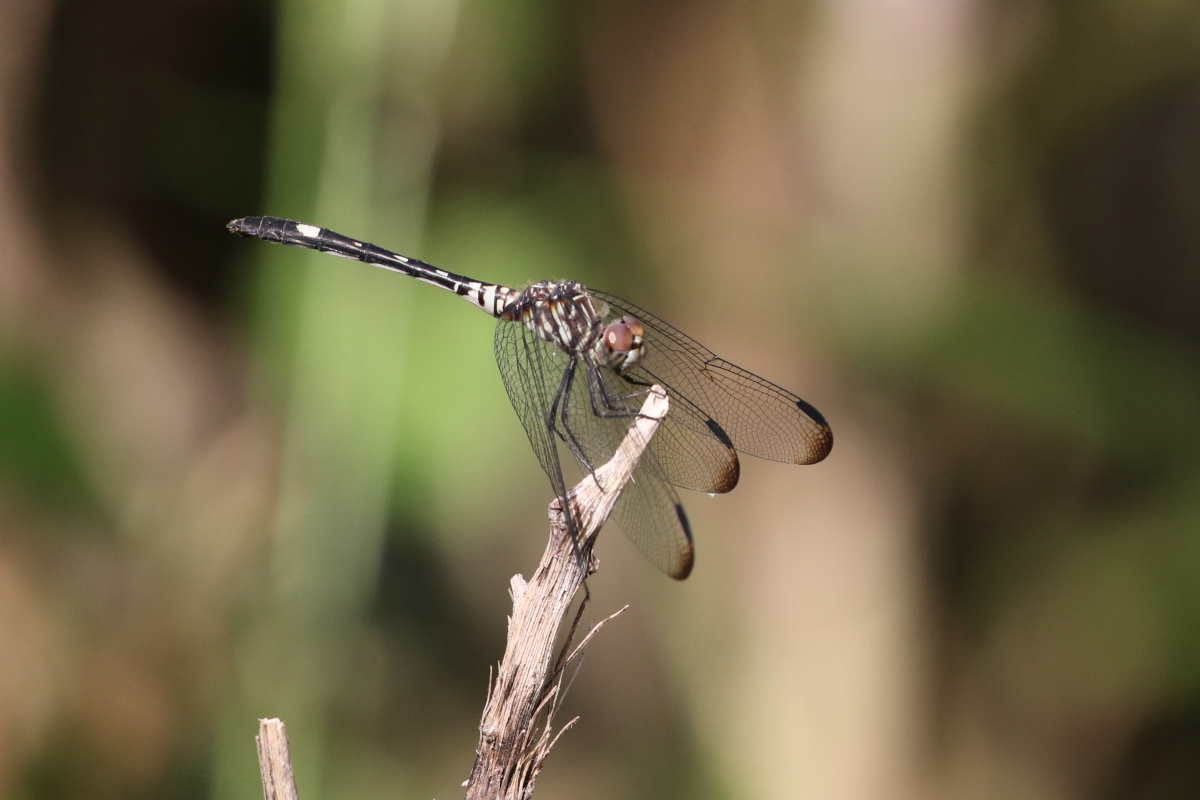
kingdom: Animalia
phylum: Arthropoda
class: Insecta
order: Odonata
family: Libellulidae
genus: Dythemis
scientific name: Dythemis velox
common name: Swift setwing
